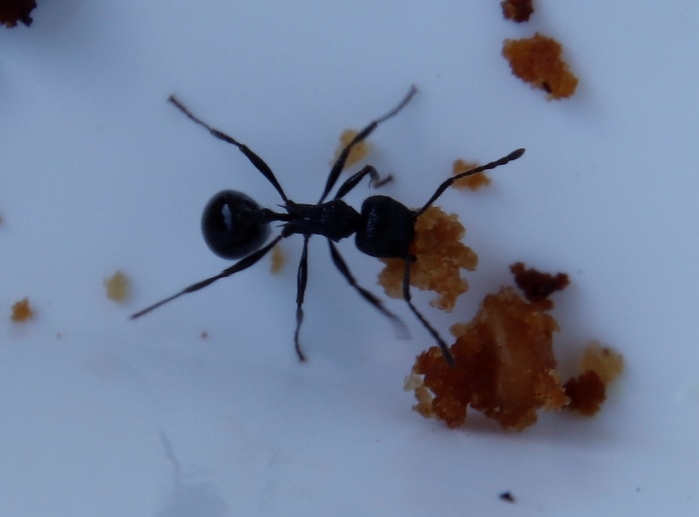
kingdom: Animalia
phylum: Arthropoda
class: Insecta
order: Hymenoptera
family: Formicidae
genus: Myrmicaria
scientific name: Myrmicaria nigra
